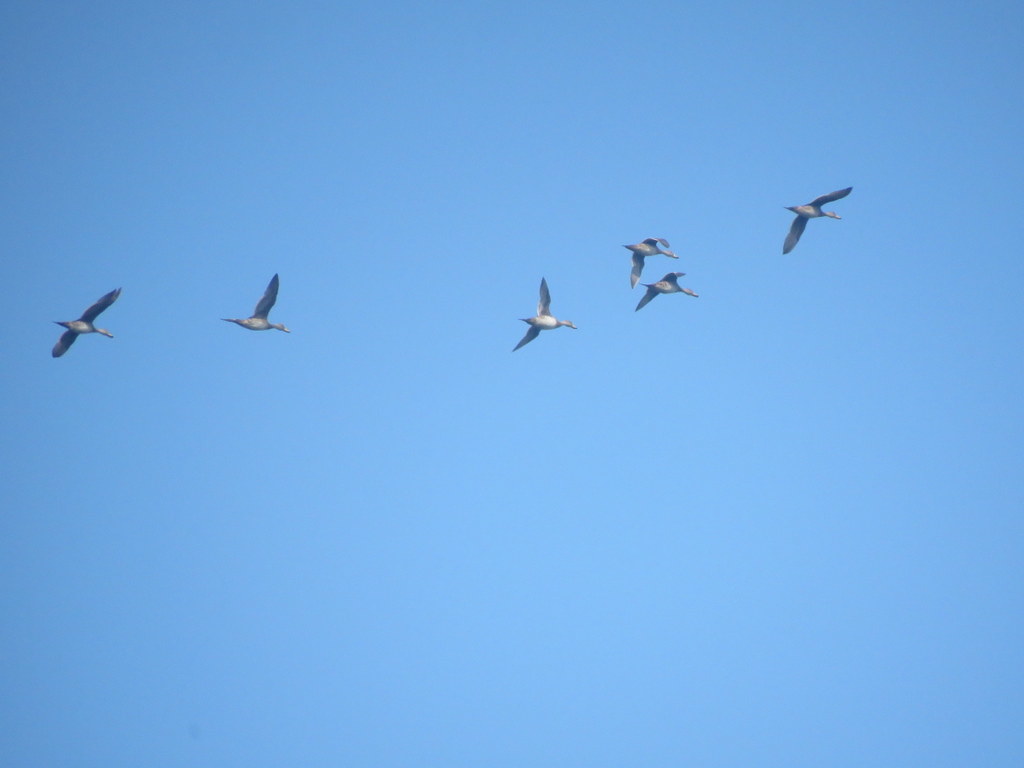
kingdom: Animalia
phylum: Chordata
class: Aves
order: Anseriformes
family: Anatidae
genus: Anas
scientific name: Anas georgica
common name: Yellow-billed pintail
